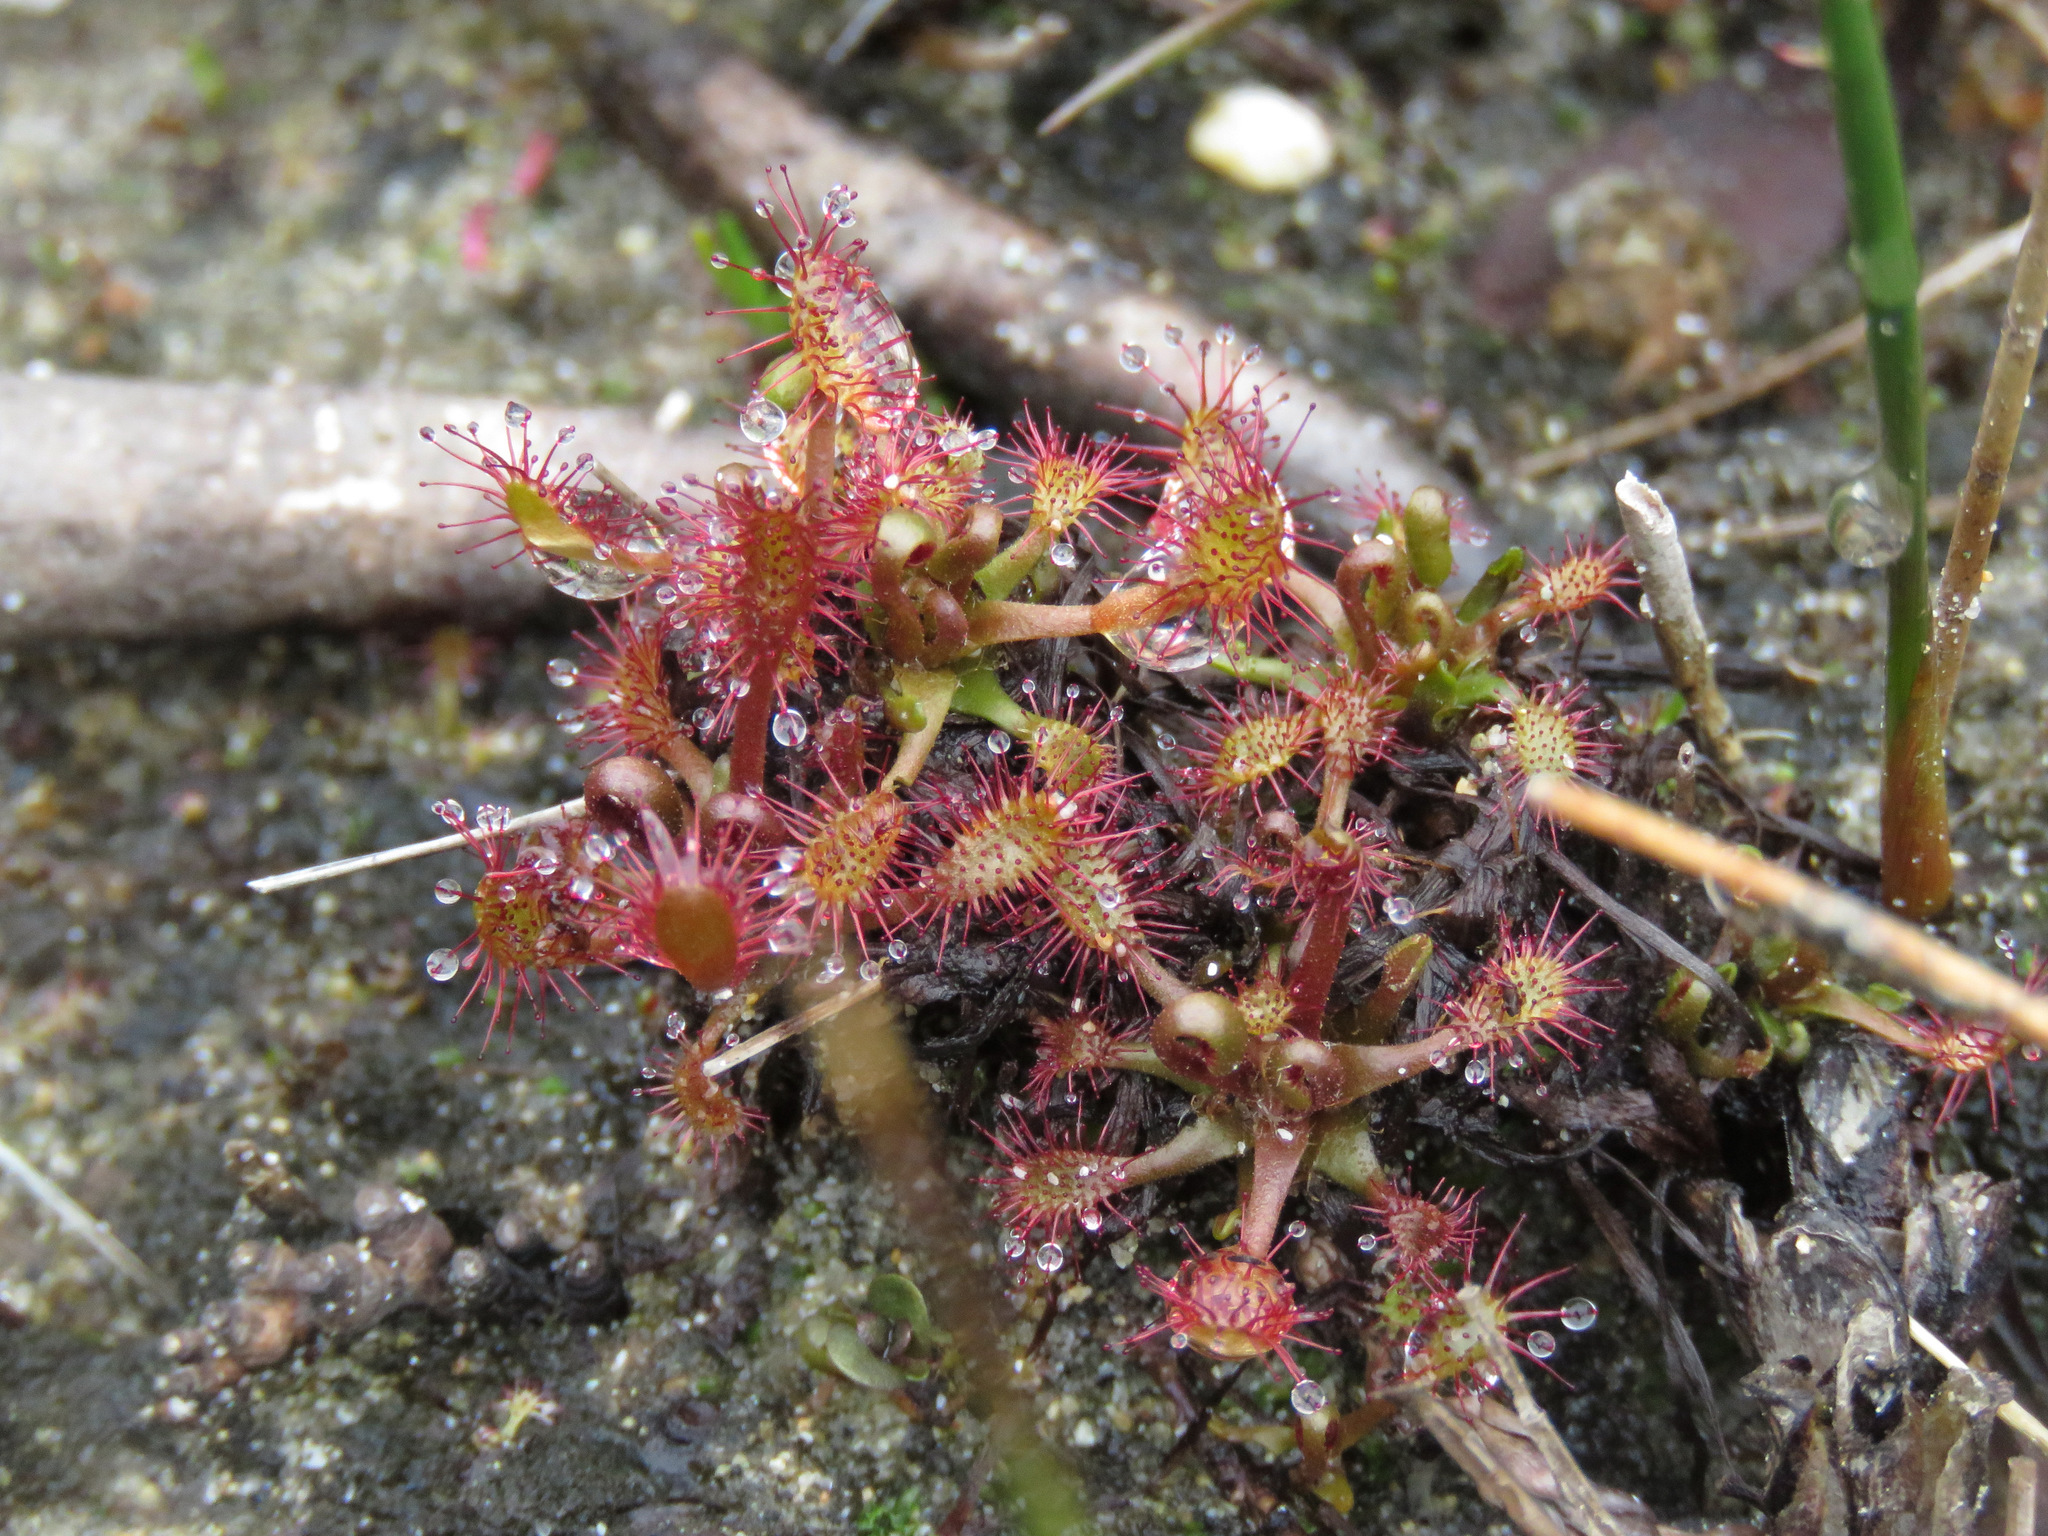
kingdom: Plantae
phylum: Tracheophyta
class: Magnoliopsida
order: Caryophyllales
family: Droseraceae
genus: Drosera
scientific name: Drosera anglica
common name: Great sundew
